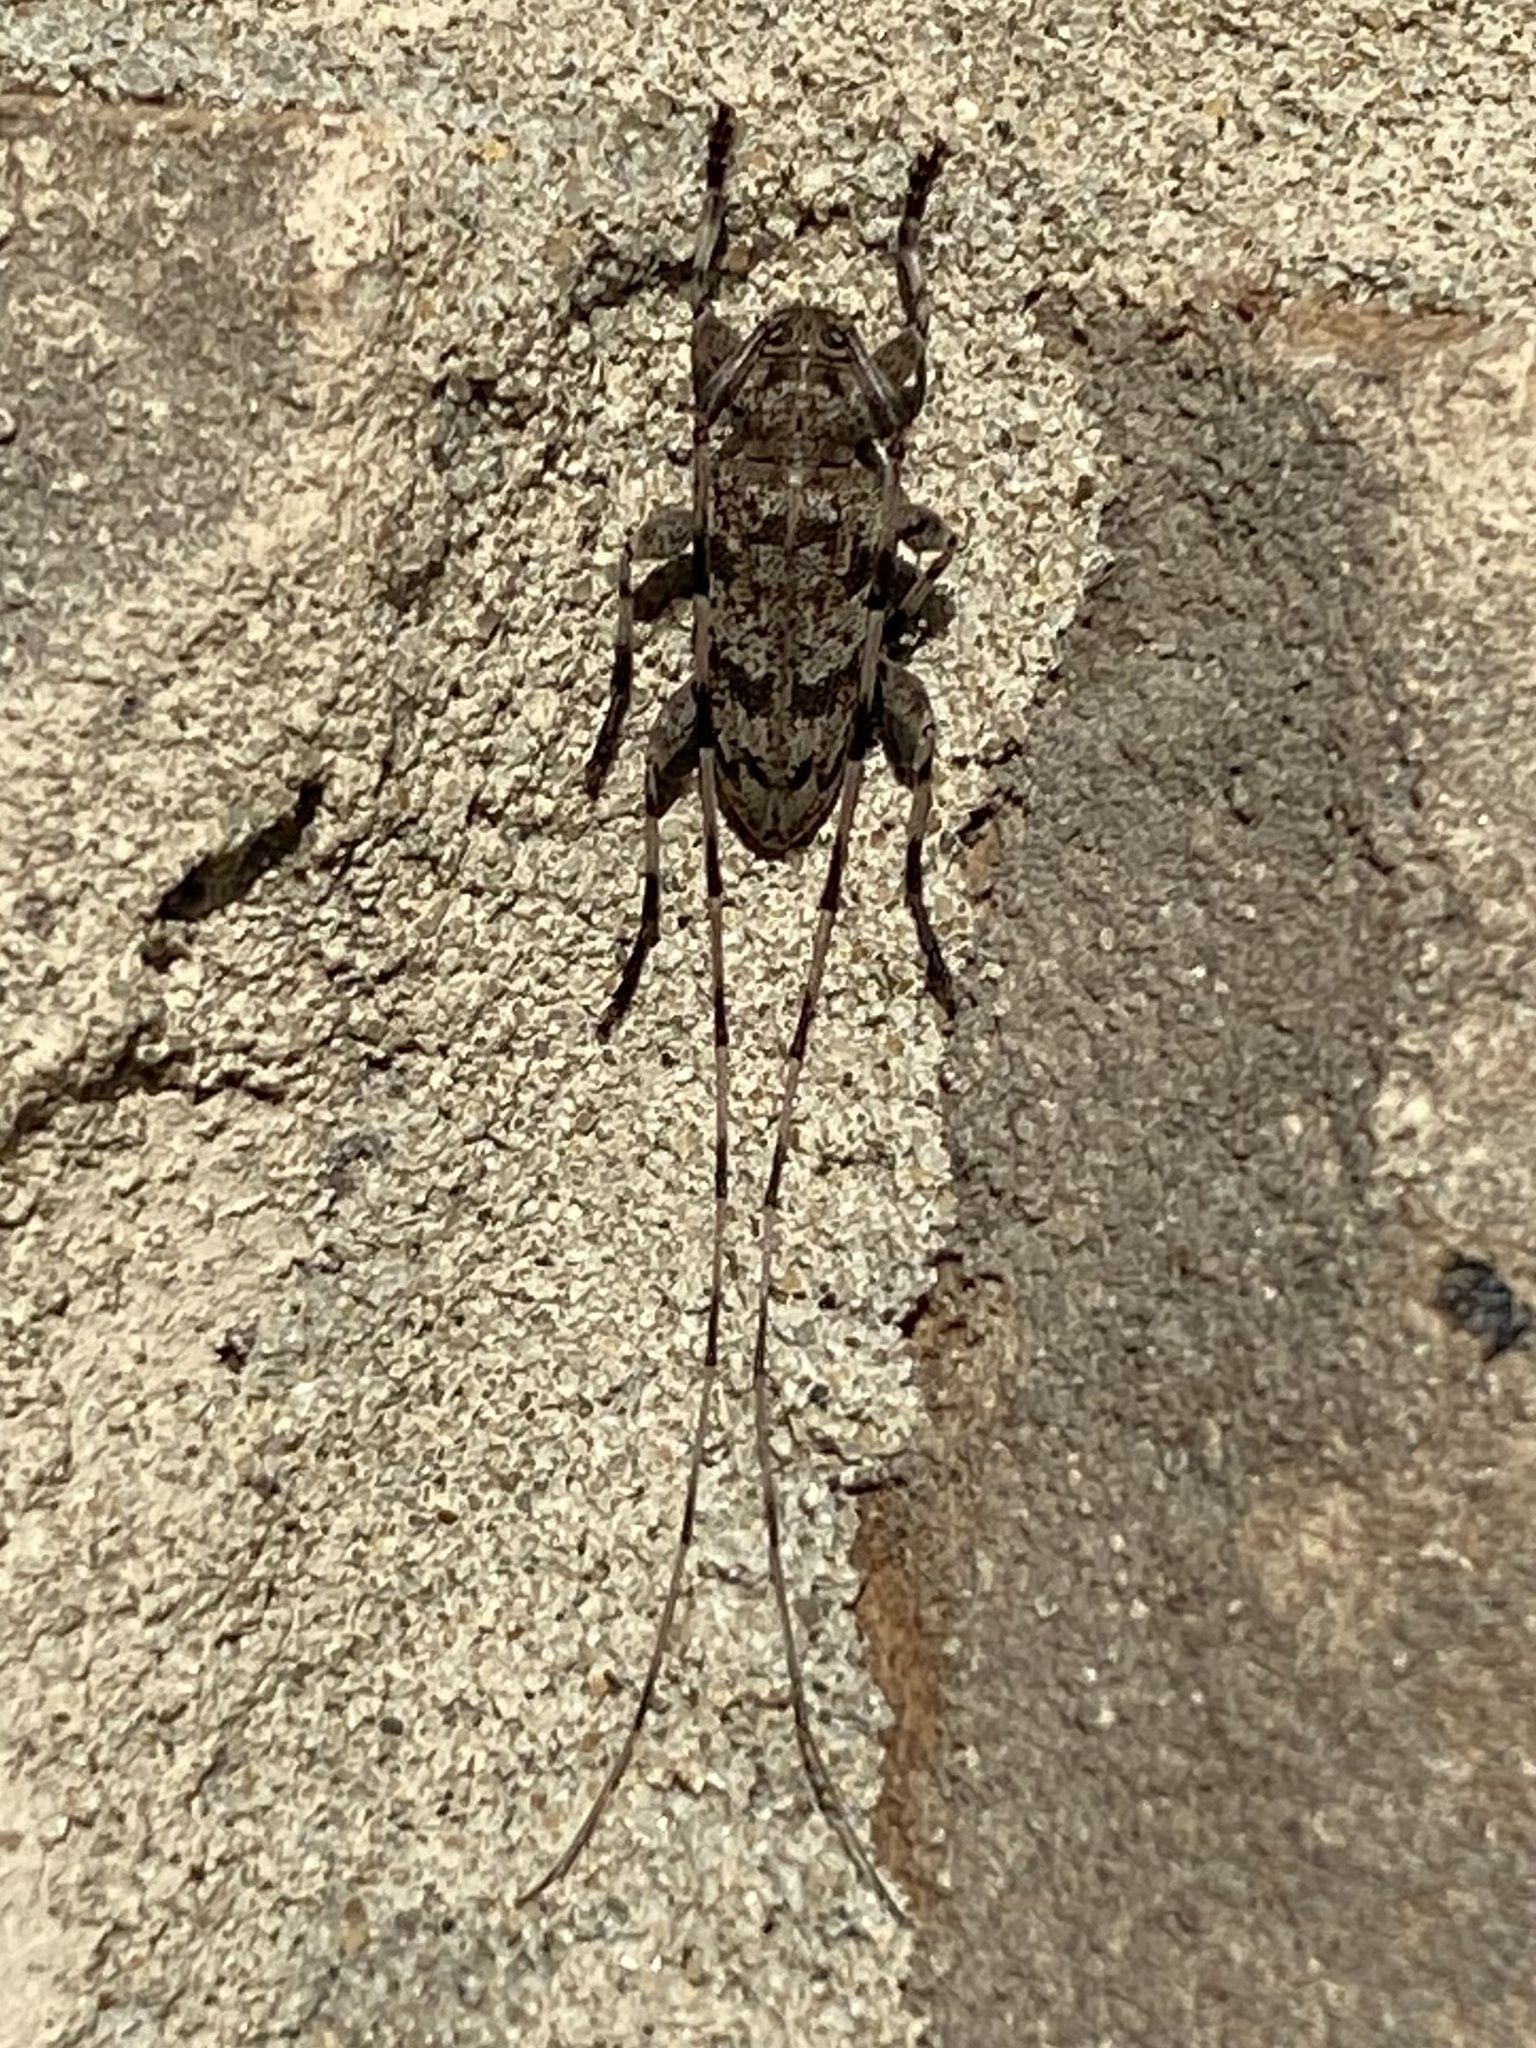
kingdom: Animalia
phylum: Arthropoda
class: Insecta
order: Coleoptera
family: Cerambycidae
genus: Acanthocinus
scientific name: Acanthocinus obsoletus
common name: Roundheaded borer
